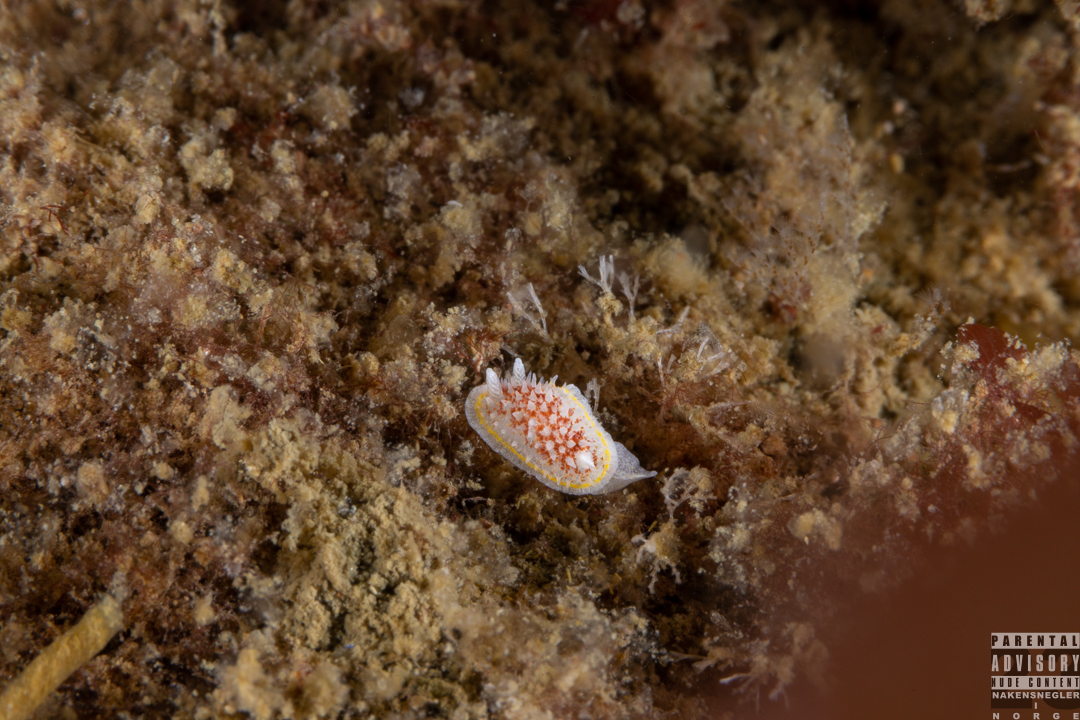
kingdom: Animalia
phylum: Mollusca
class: Gastropoda
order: Nudibranchia
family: Calycidorididae
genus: Diaphorodoris
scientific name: Diaphorodoris luteocincta
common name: Fried egg nudibranch
